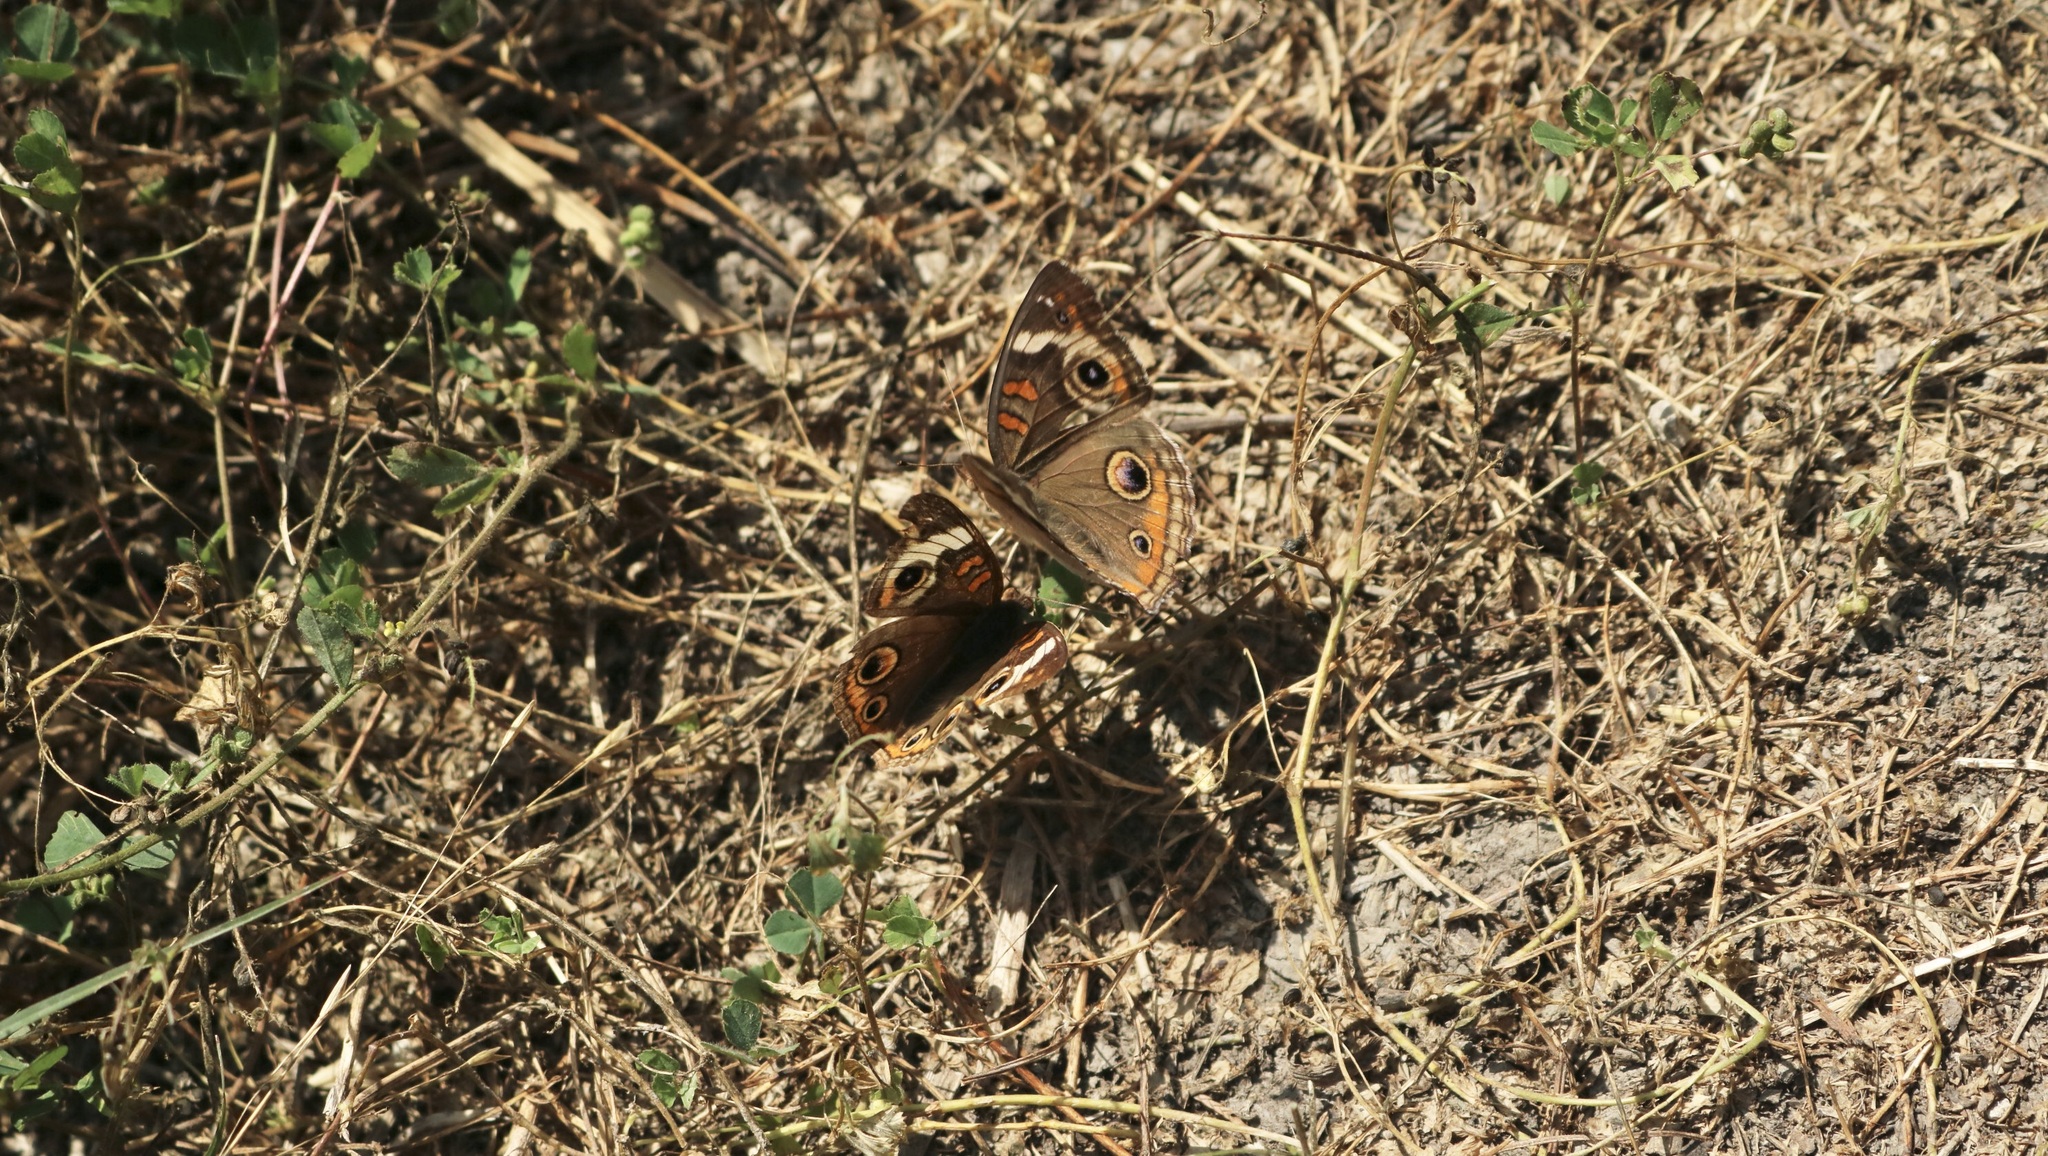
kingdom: Animalia
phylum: Arthropoda
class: Insecta
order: Lepidoptera
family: Nymphalidae
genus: Junonia
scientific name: Junonia coenia
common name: Common buckeye
